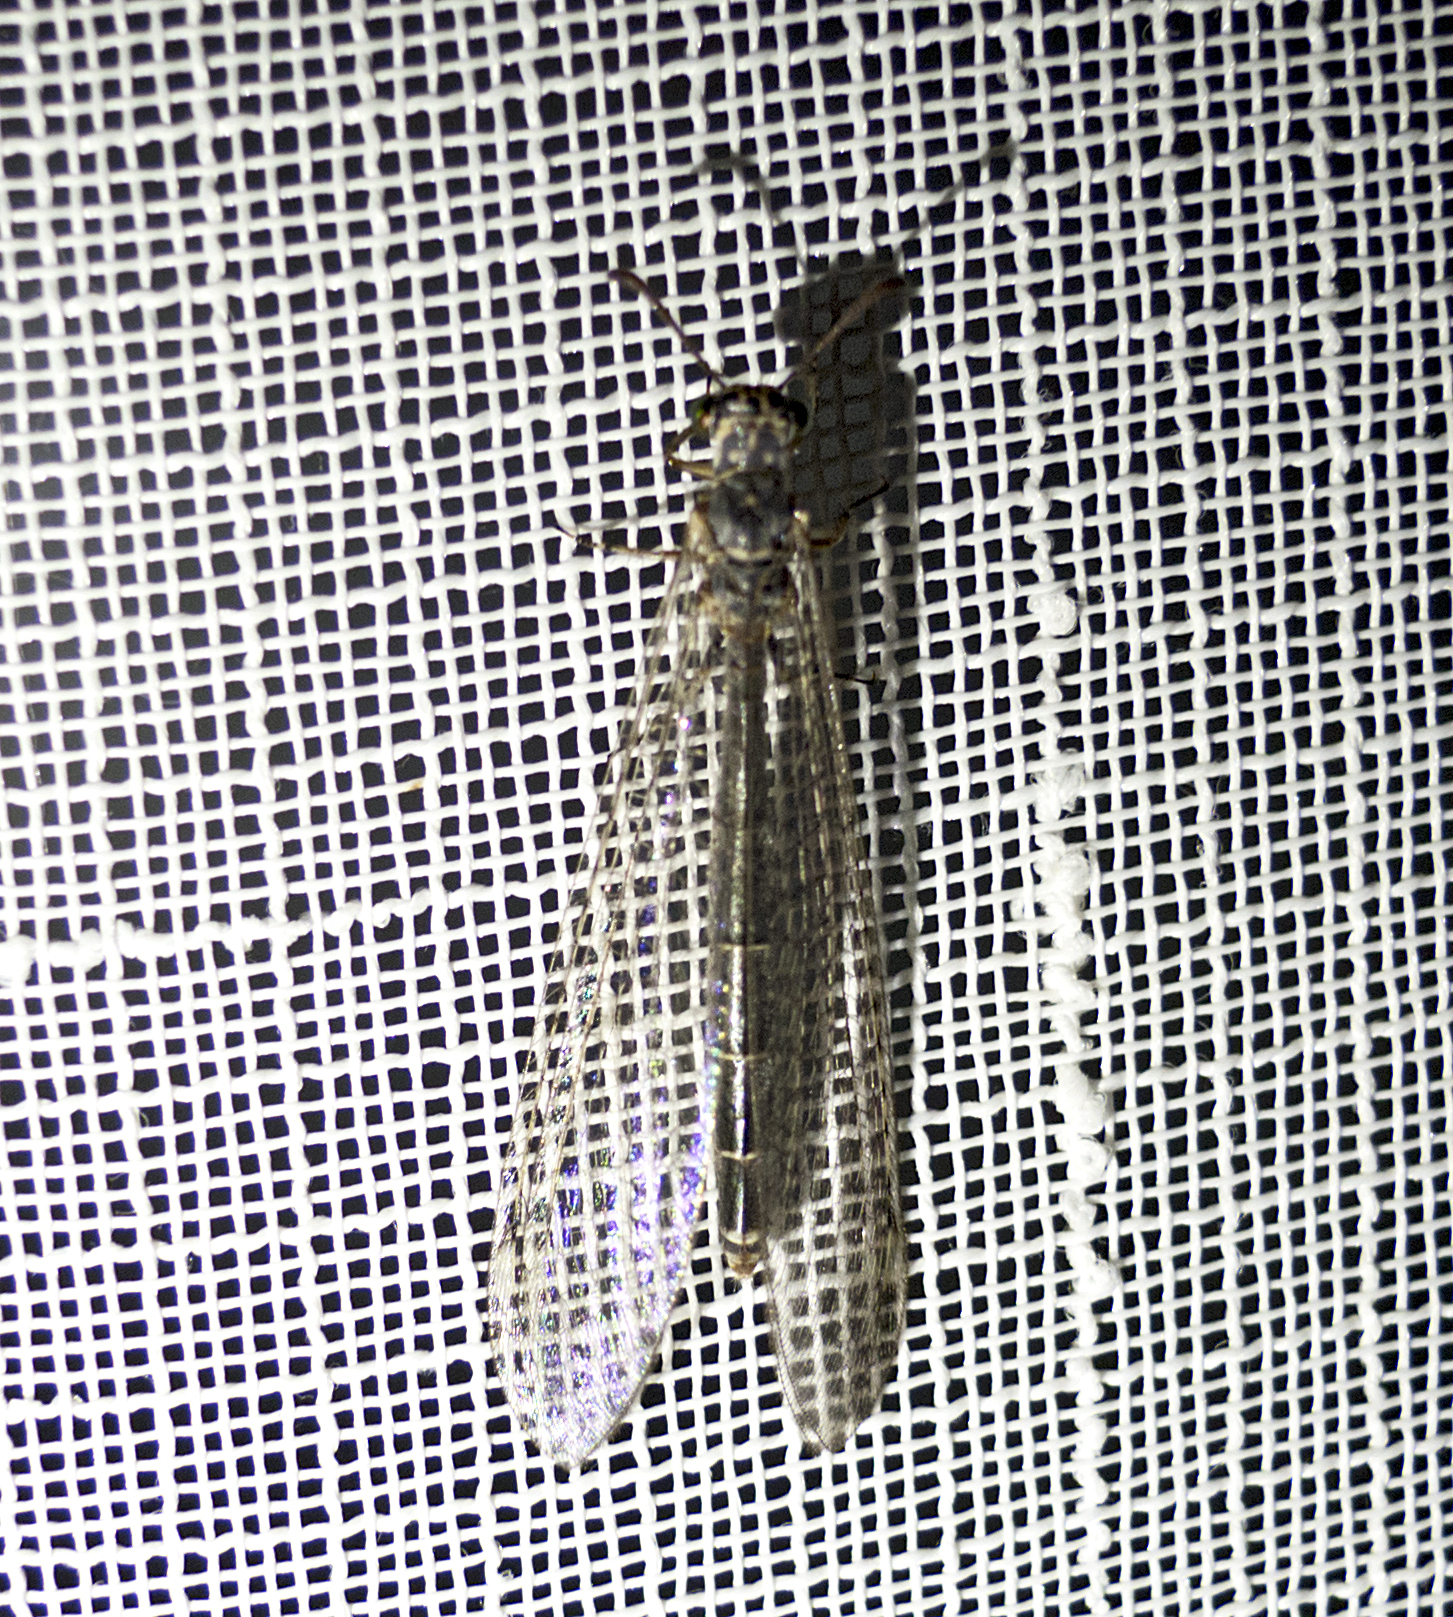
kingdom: Animalia
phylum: Arthropoda
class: Insecta
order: Neuroptera
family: Myrmeleontidae
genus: Myrmeleon
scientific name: Myrmeleon inconspicuus
